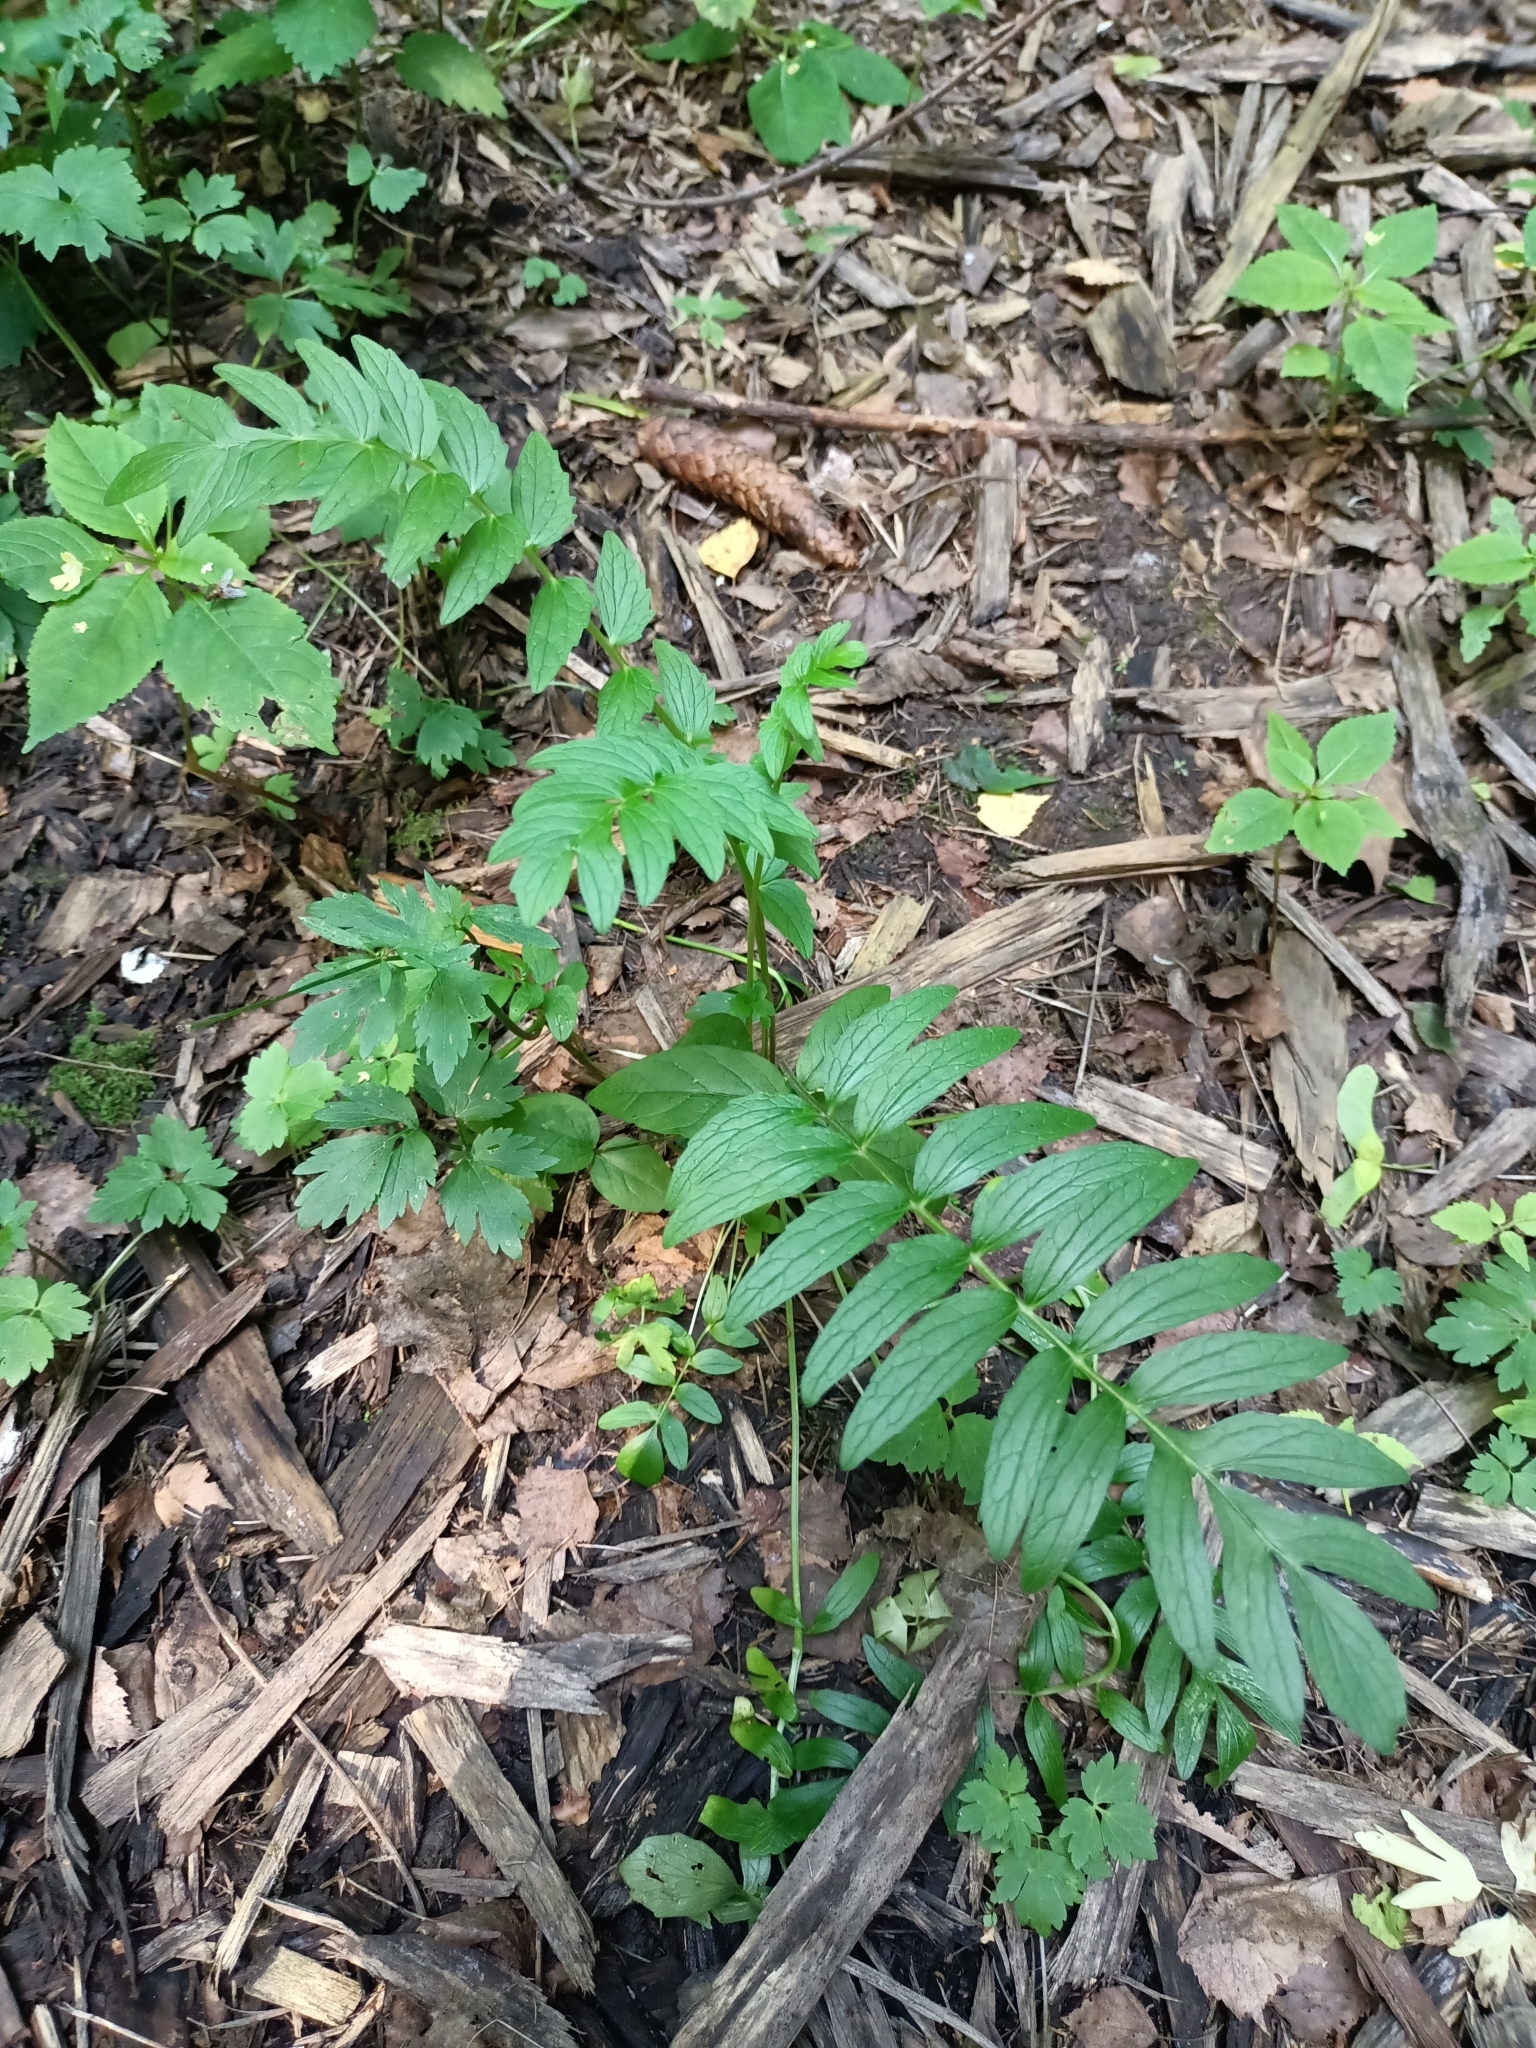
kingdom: Plantae
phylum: Tracheophyta
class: Magnoliopsida
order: Dipsacales
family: Caprifoliaceae
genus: Valeriana
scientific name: Valeriana officinalis
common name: Common valerian
